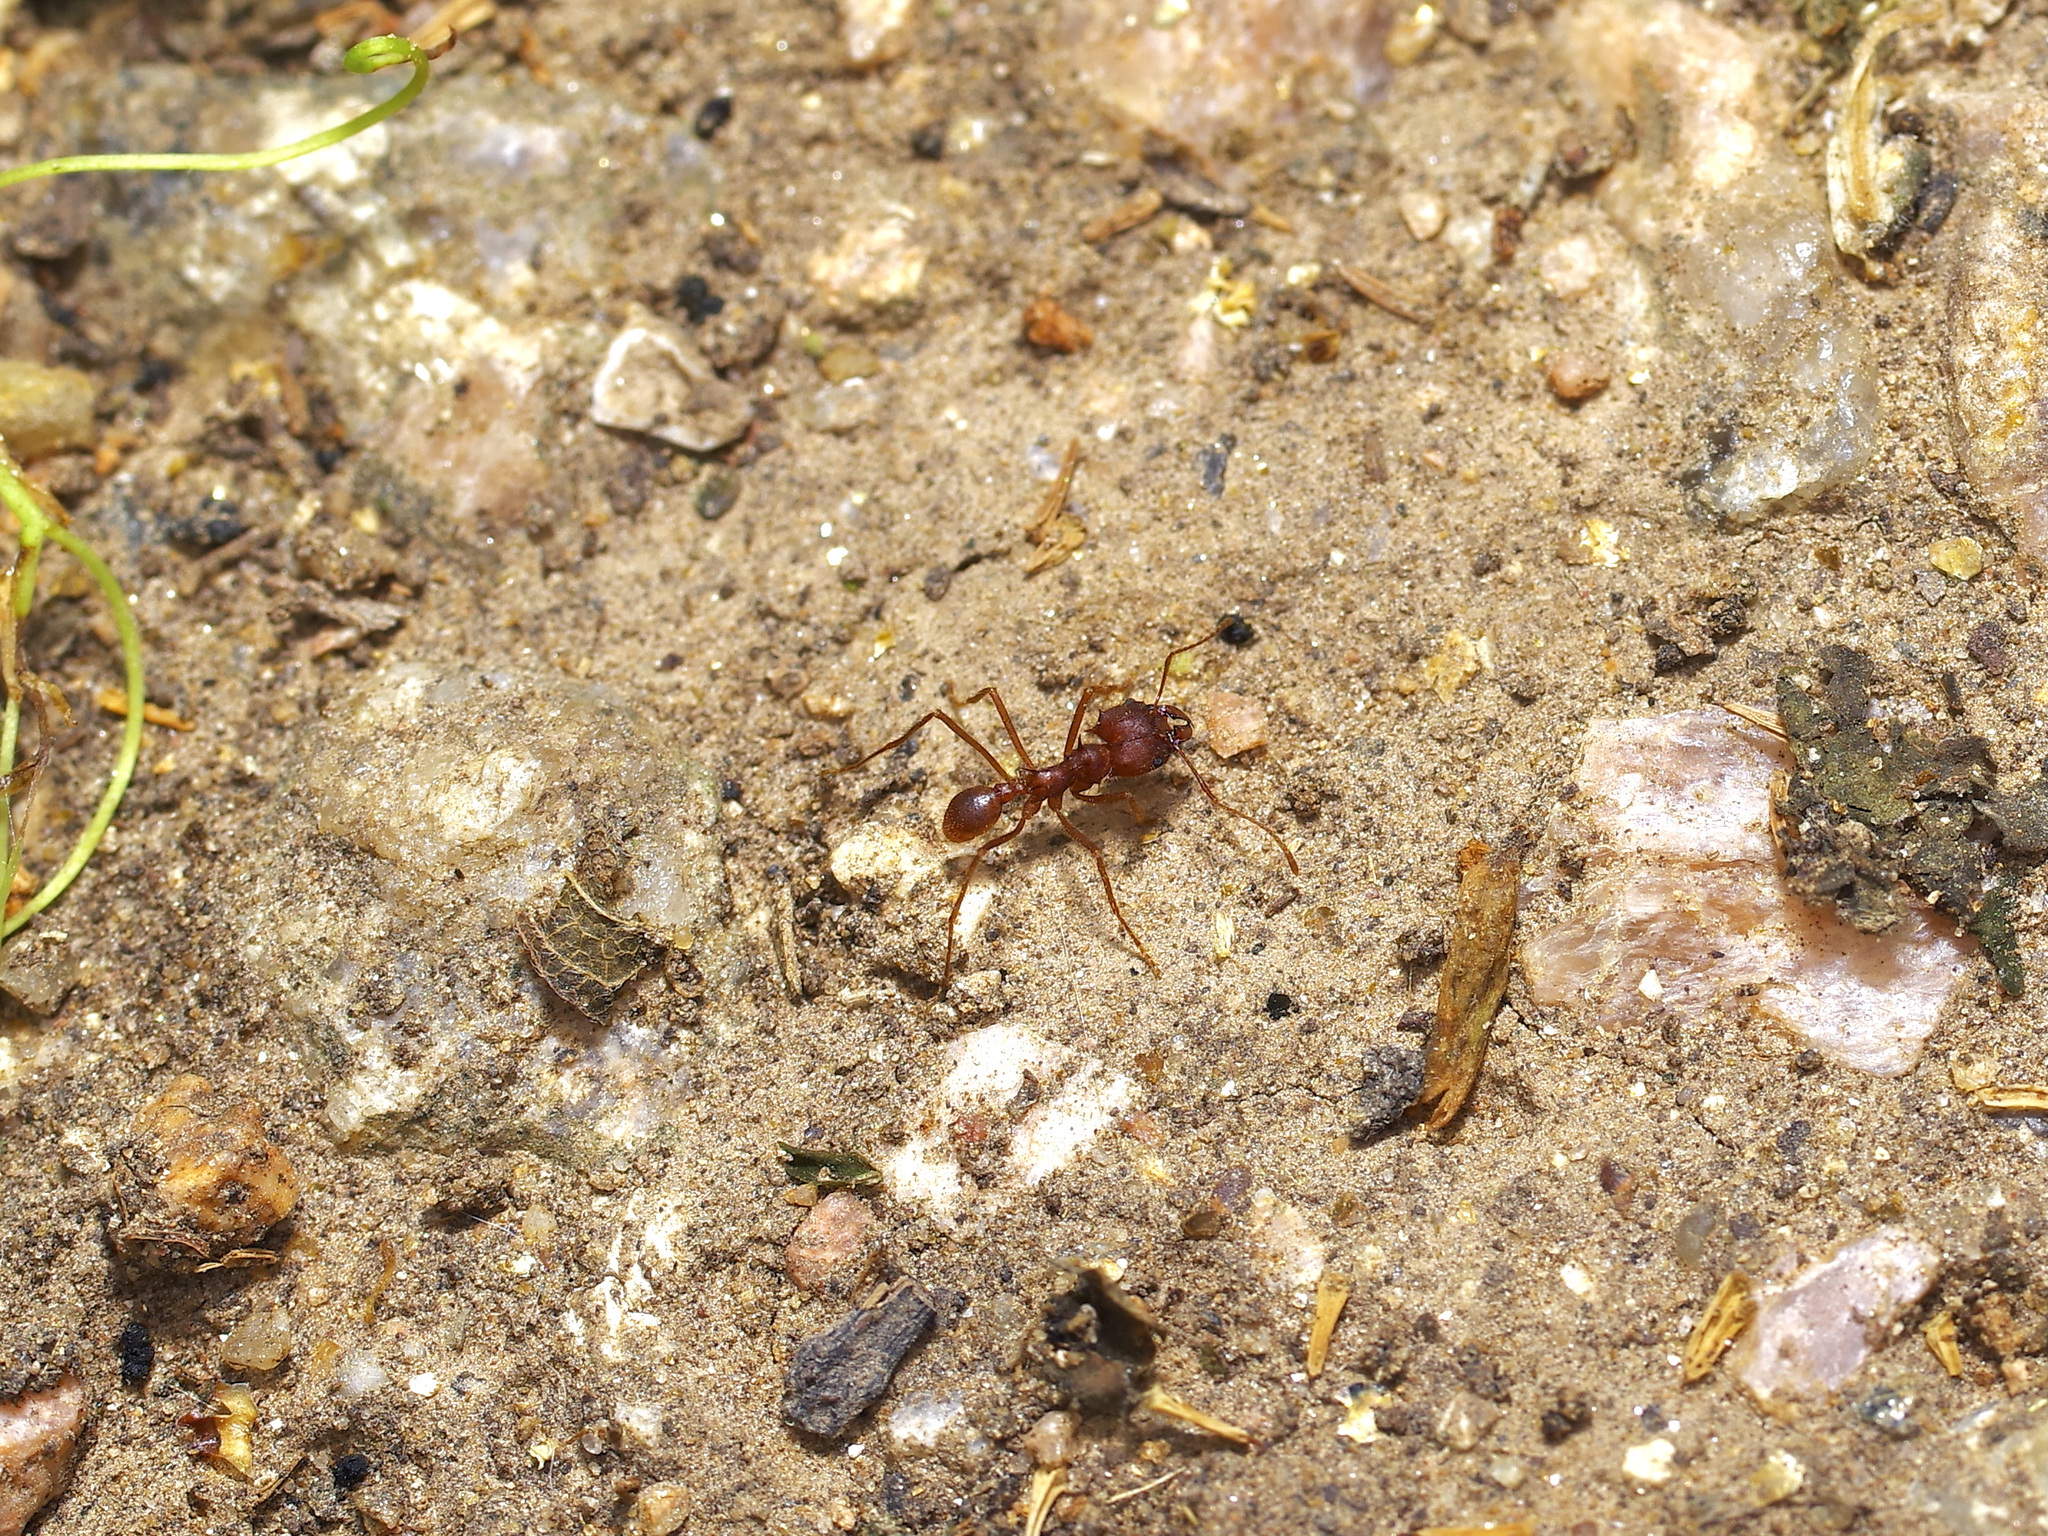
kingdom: Animalia
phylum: Arthropoda
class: Insecta
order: Hymenoptera
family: Formicidae
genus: Atta
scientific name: Atta texana
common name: Texas leafcutting ant
